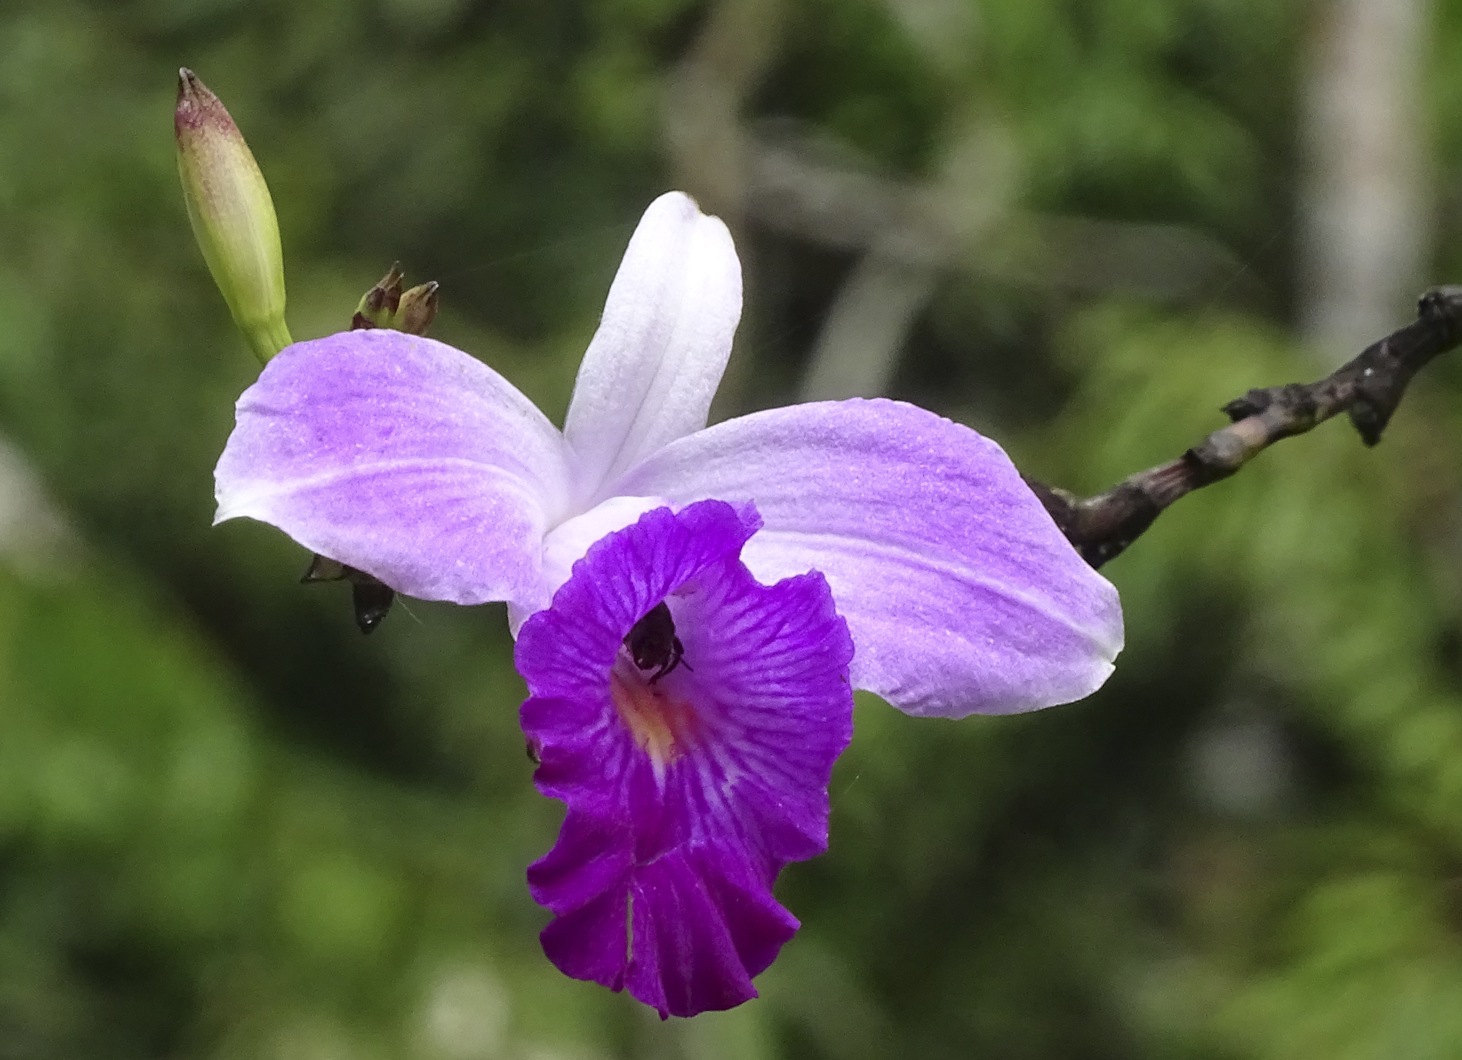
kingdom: Plantae
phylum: Tracheophyta
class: Liliopsida
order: Asparagales
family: Orchidaceae
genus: Arundina
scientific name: Arundina graminifolia
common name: Bamboo orchid
